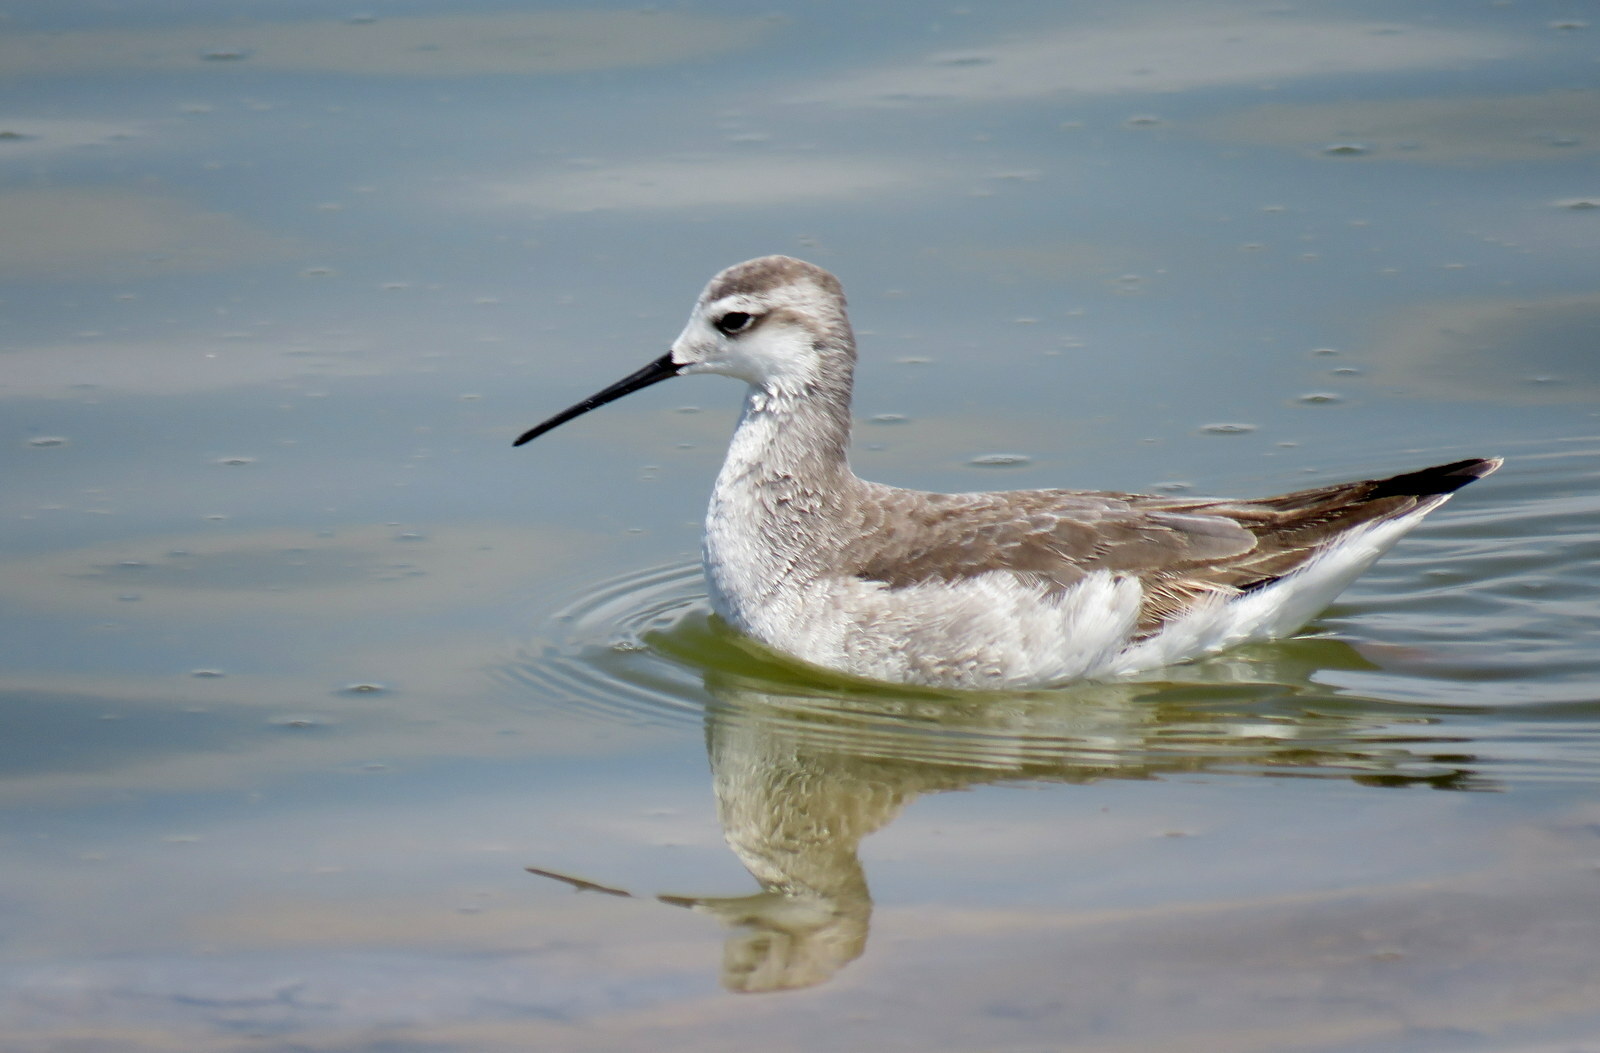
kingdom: Animalia
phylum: Chordata
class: Aves
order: Charadriiformes
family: Scolopacidae
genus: Phalaropus
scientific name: Phalaropus tricolor
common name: Wilson's phalarope
